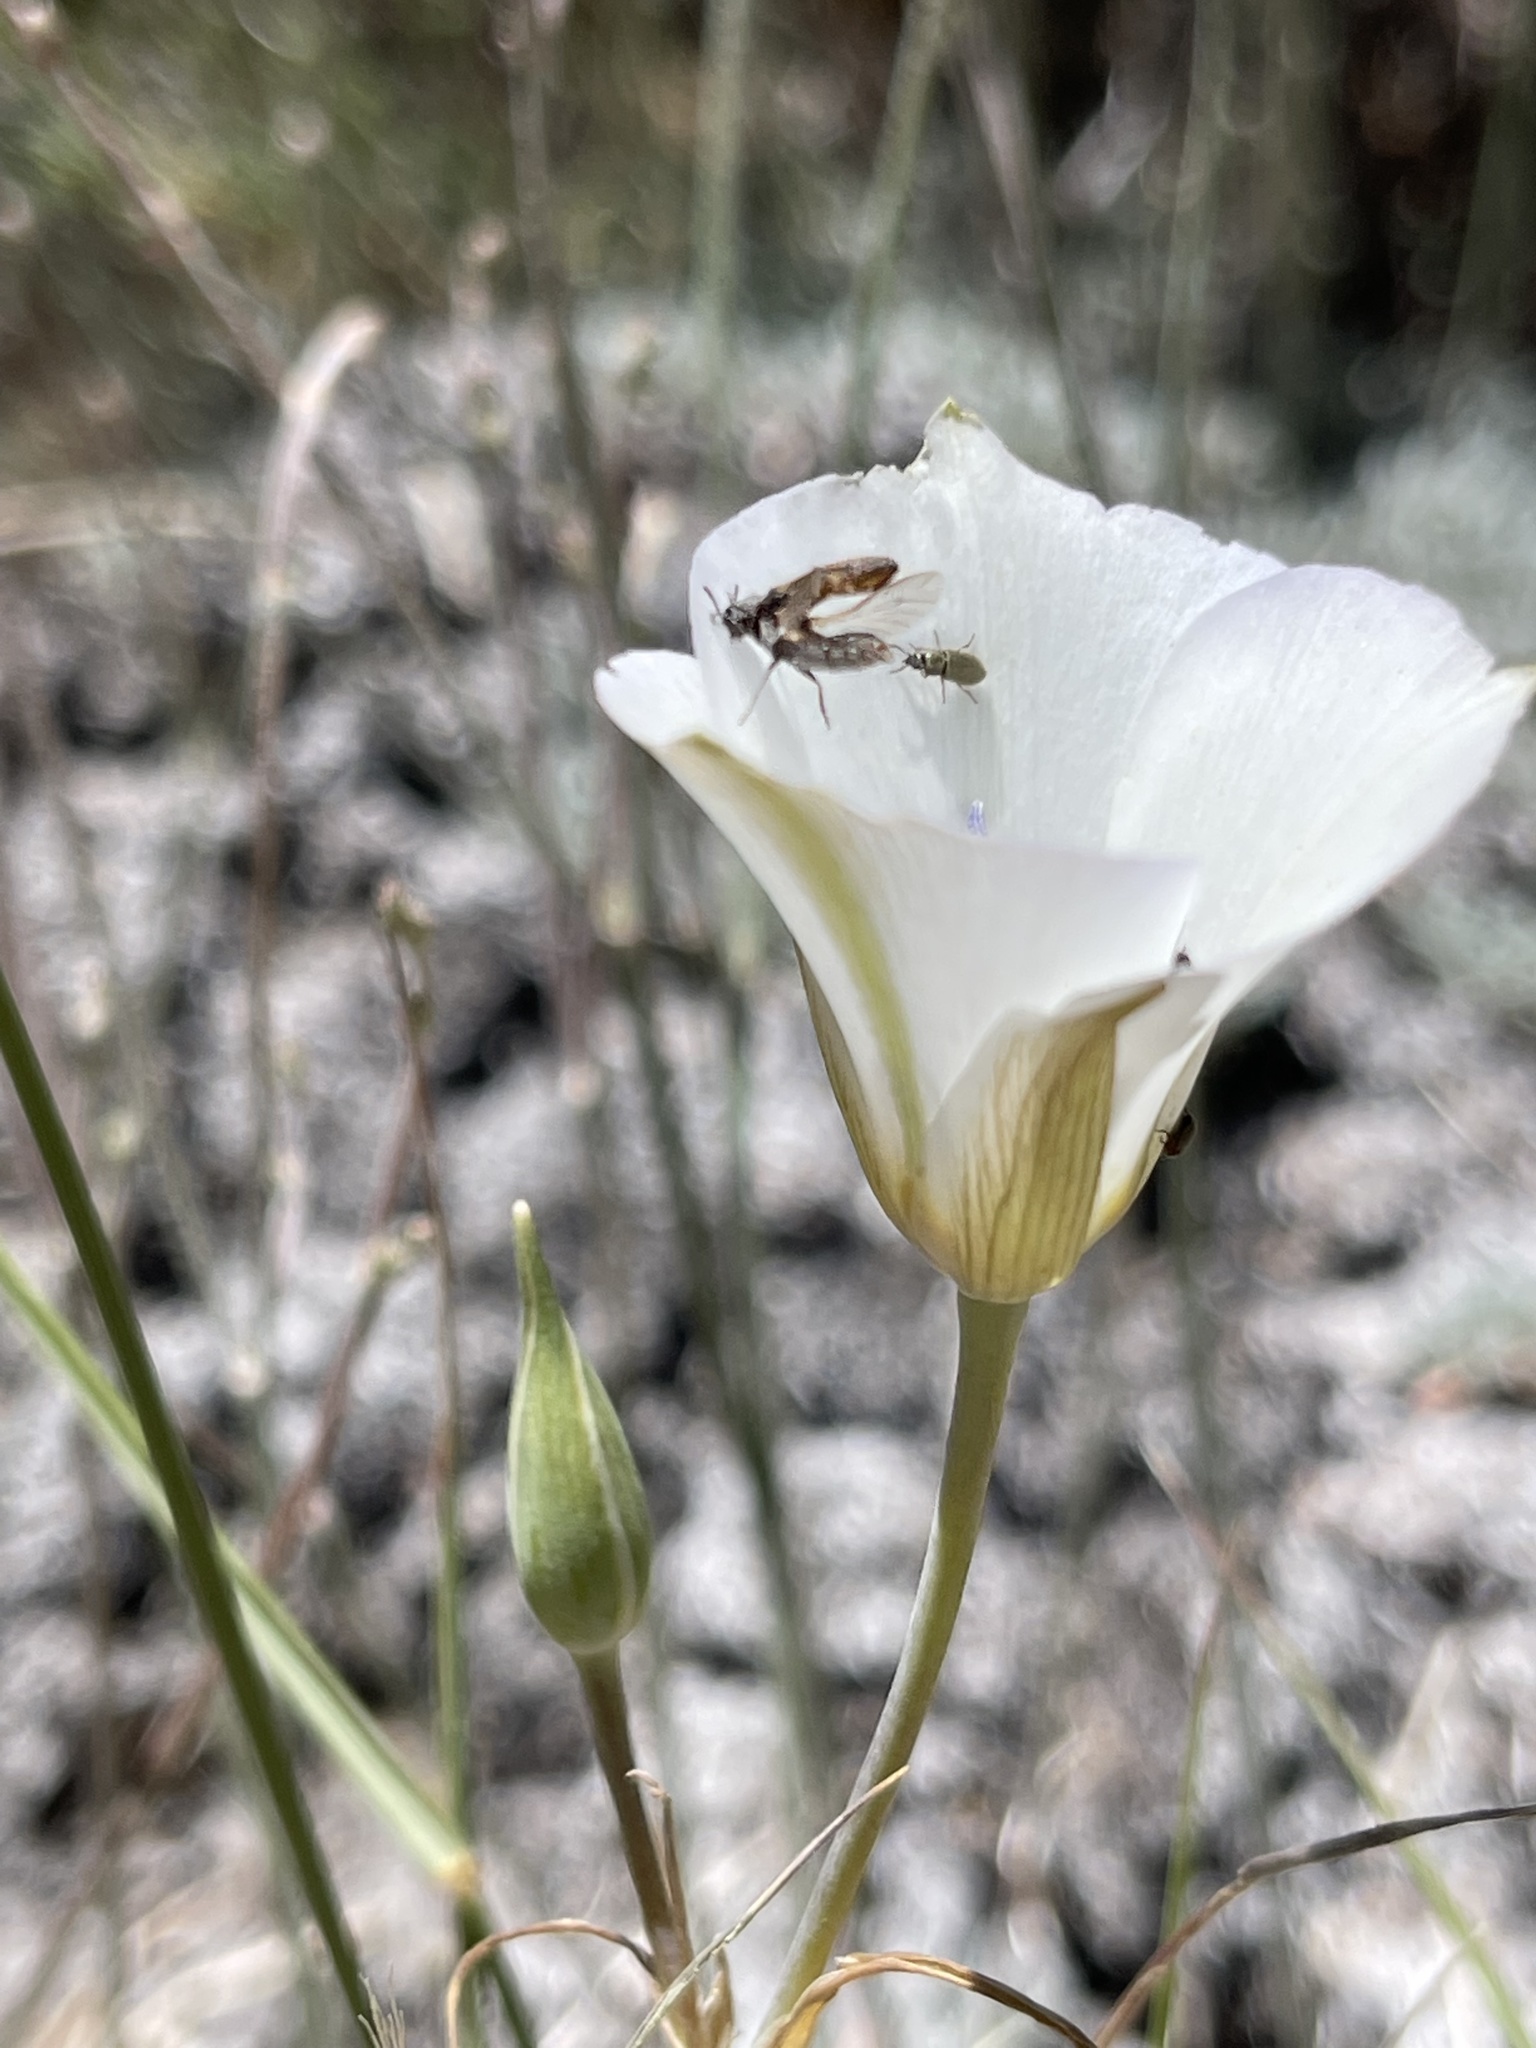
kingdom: Plantae
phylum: Tracheophyta
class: Liliopsida
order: Liliales
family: Liliaceae
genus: Calochortus
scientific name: Calochortus invenustus
